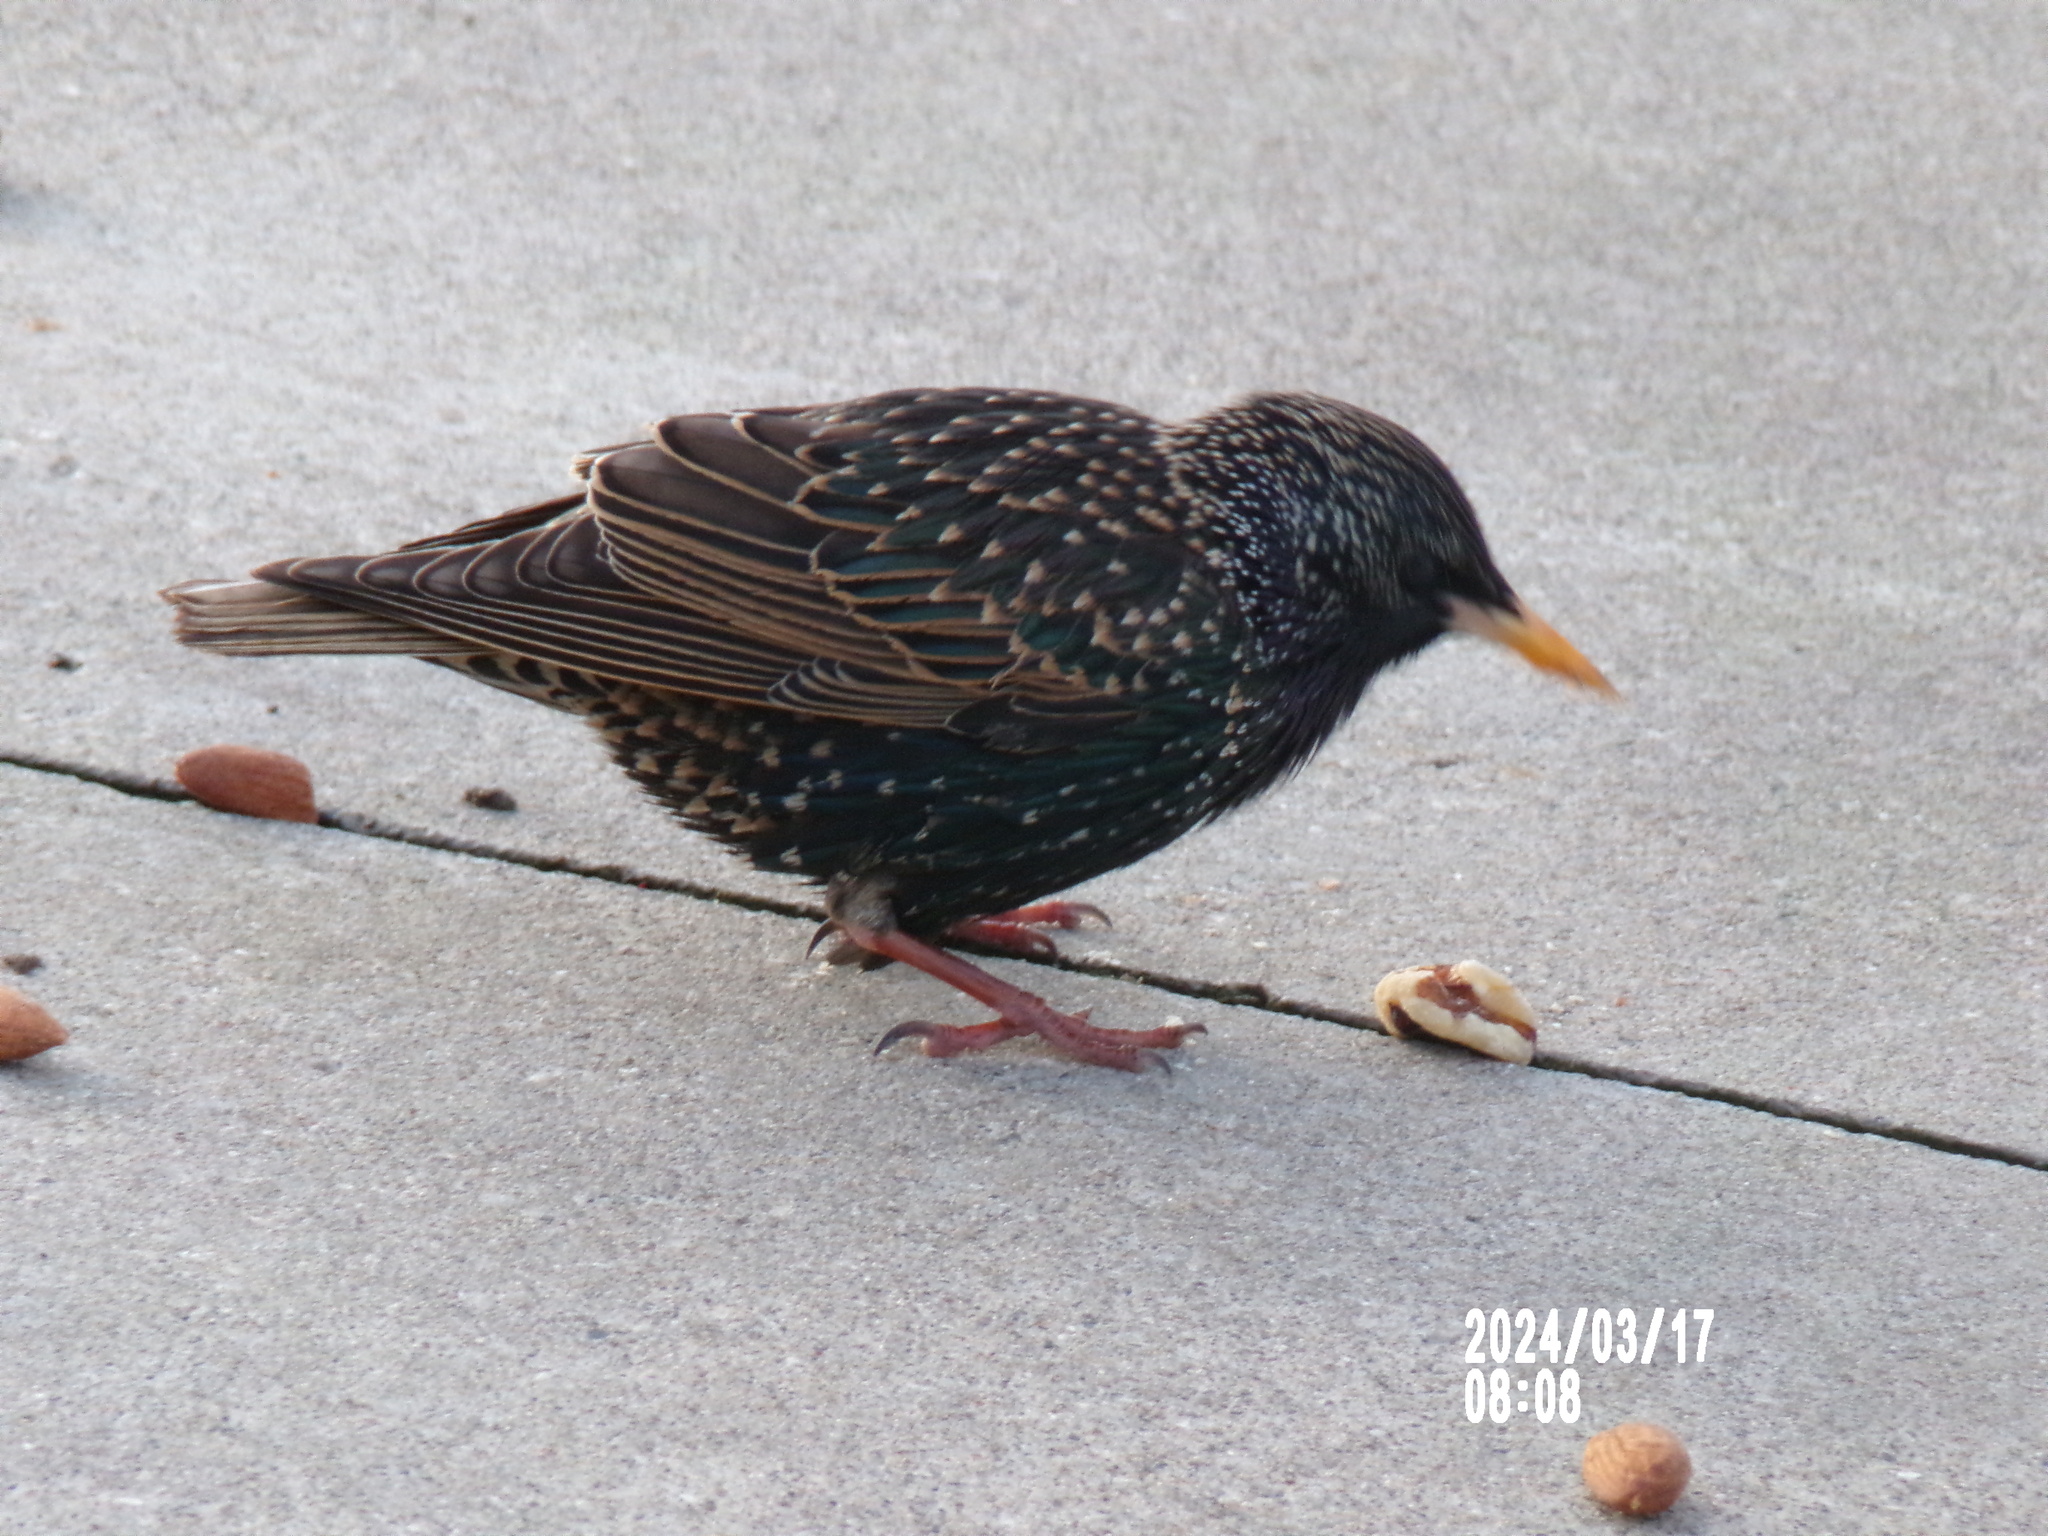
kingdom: Animalia
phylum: Chordata
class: Aves
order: Passeriformes
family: Sturnidae
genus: Sturnus
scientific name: Sturnus vulgaris
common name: Common starling
